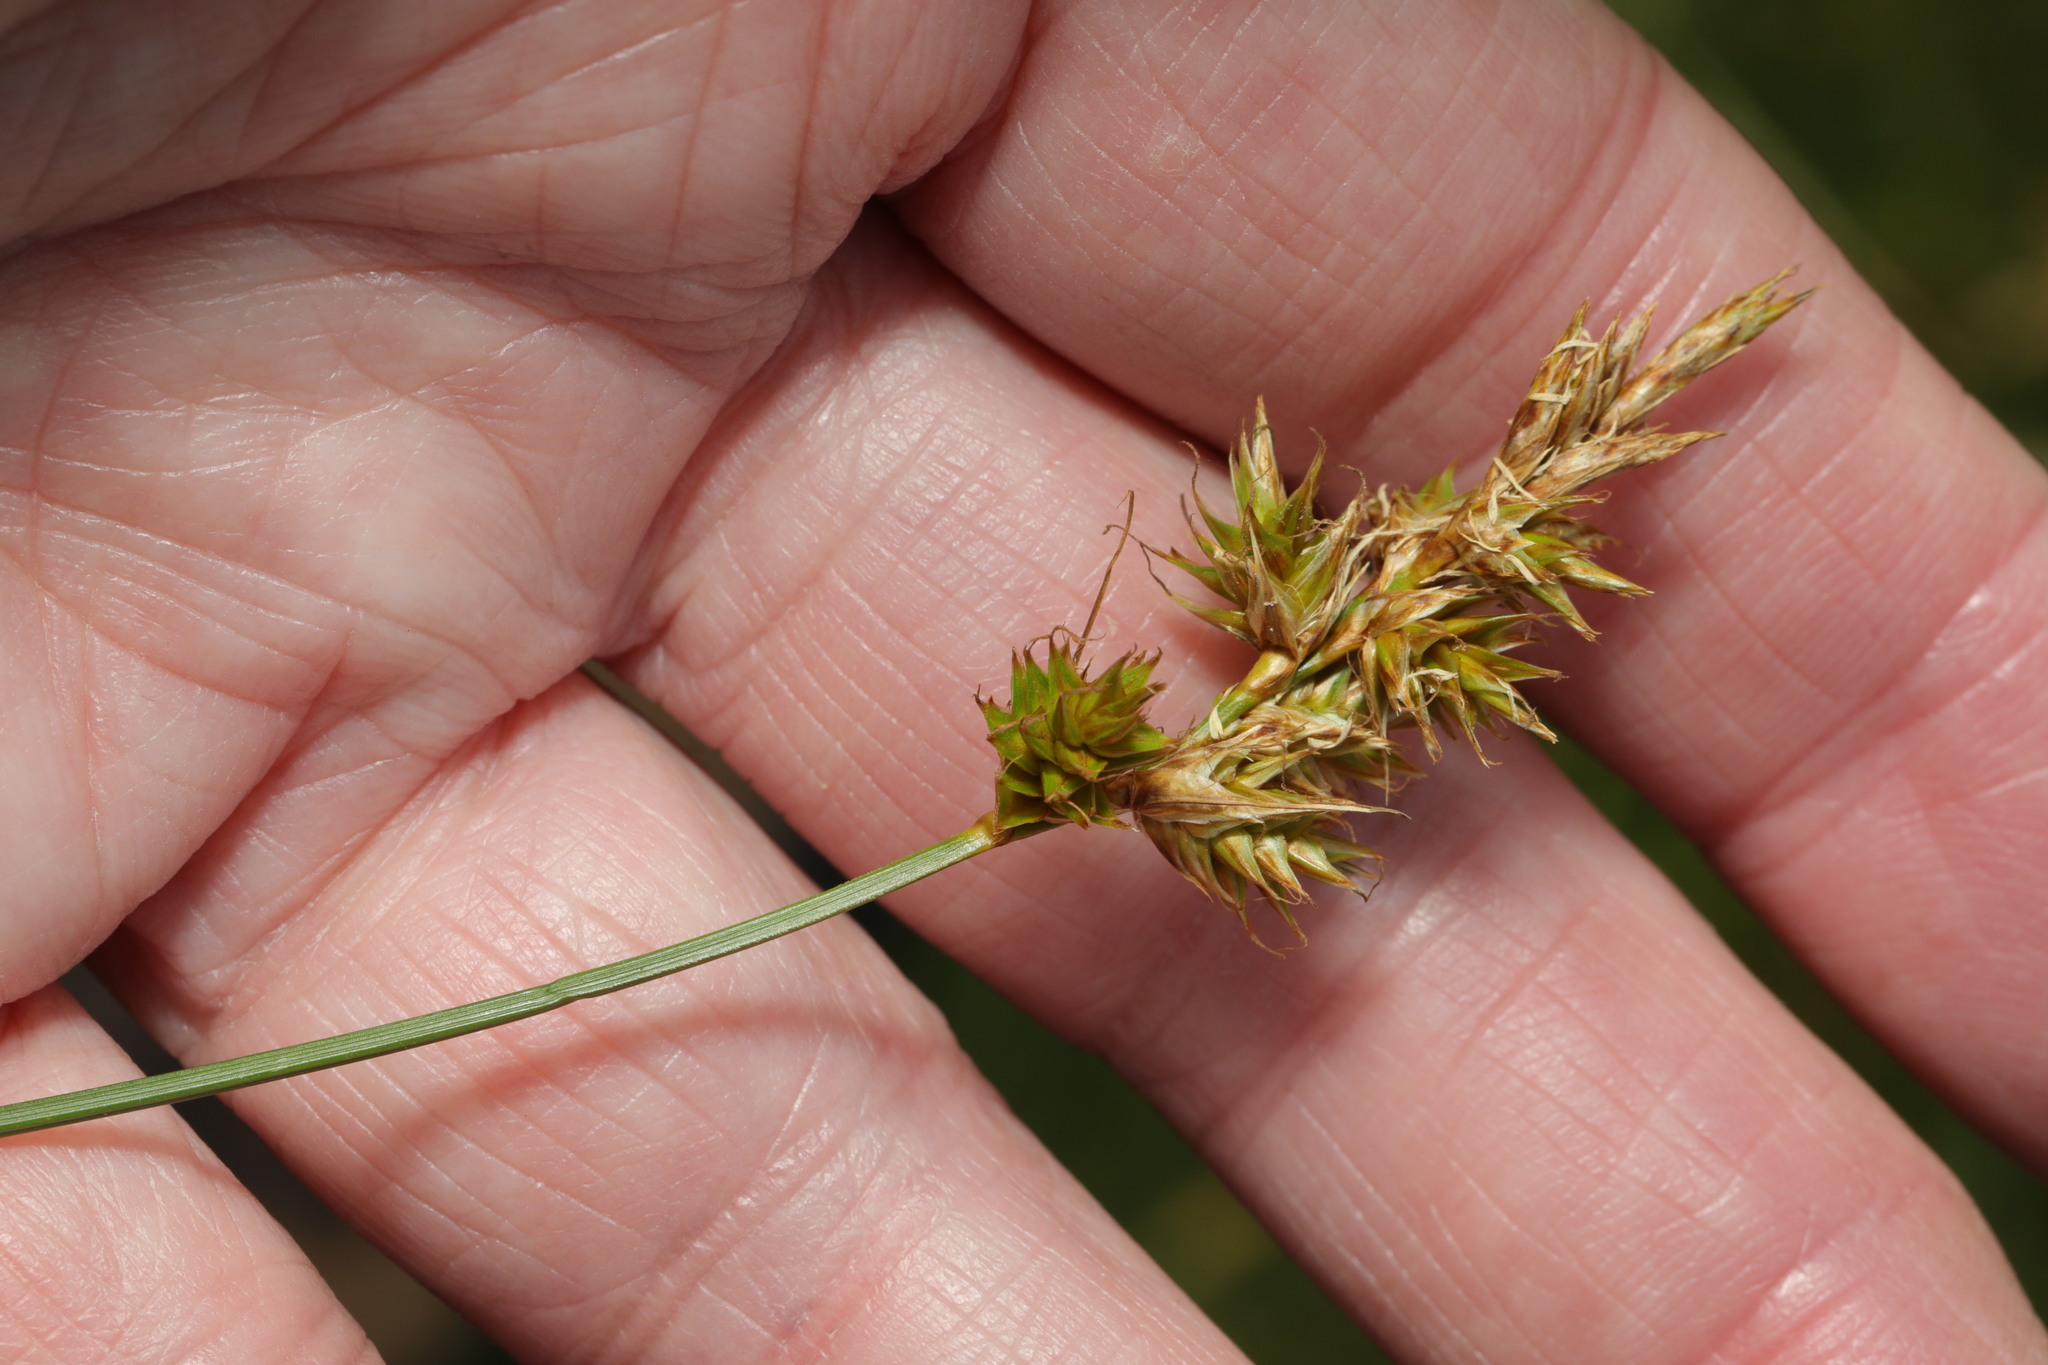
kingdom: Plantae
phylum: Tracheophyta
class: Liliopsida
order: Poales
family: Cyperaceae
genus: Carex
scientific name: Carex arenaria
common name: Sand sedge
